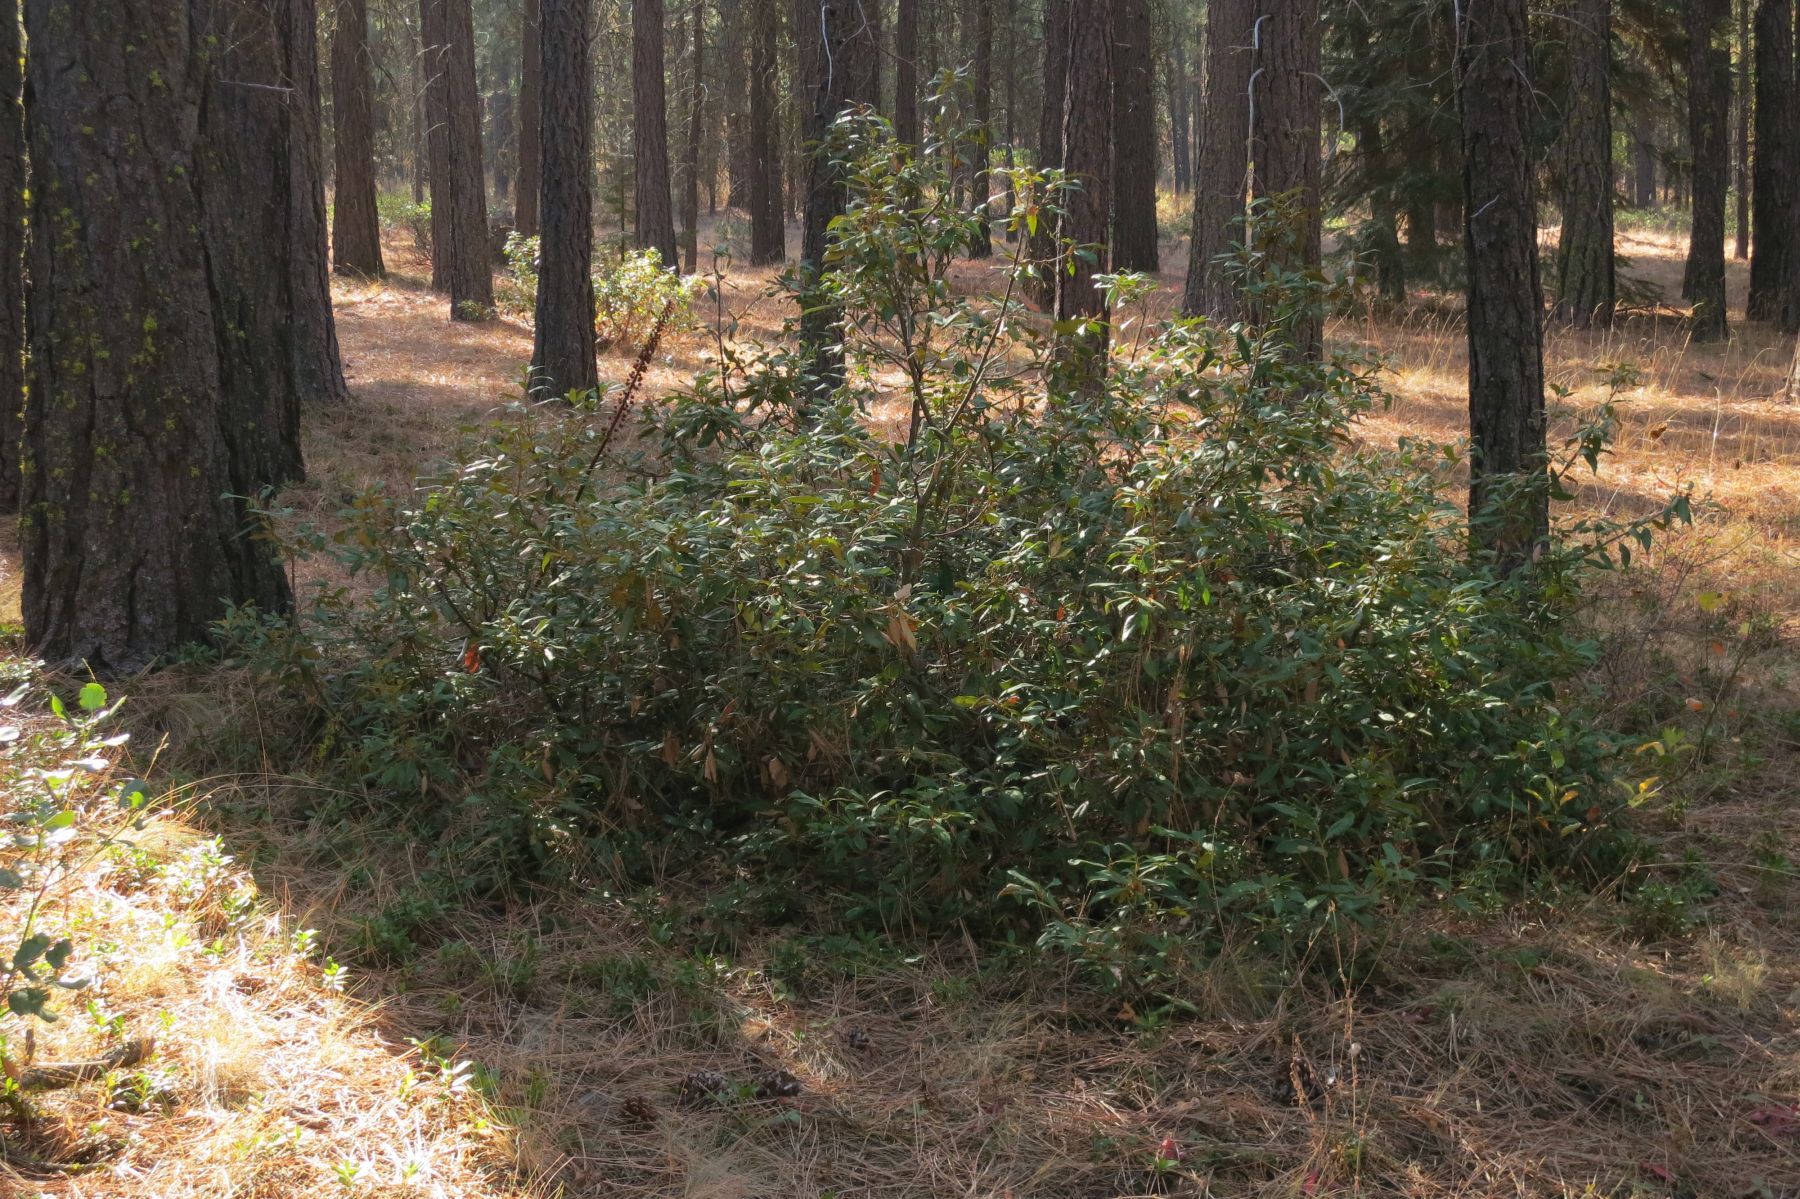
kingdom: Plantae
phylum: Tracheophyta
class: Magnoliopsida
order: Fagales
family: Fagaceae
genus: Chrysolepis
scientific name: Chrysolepis chrysophylla
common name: Giant chinquapin
